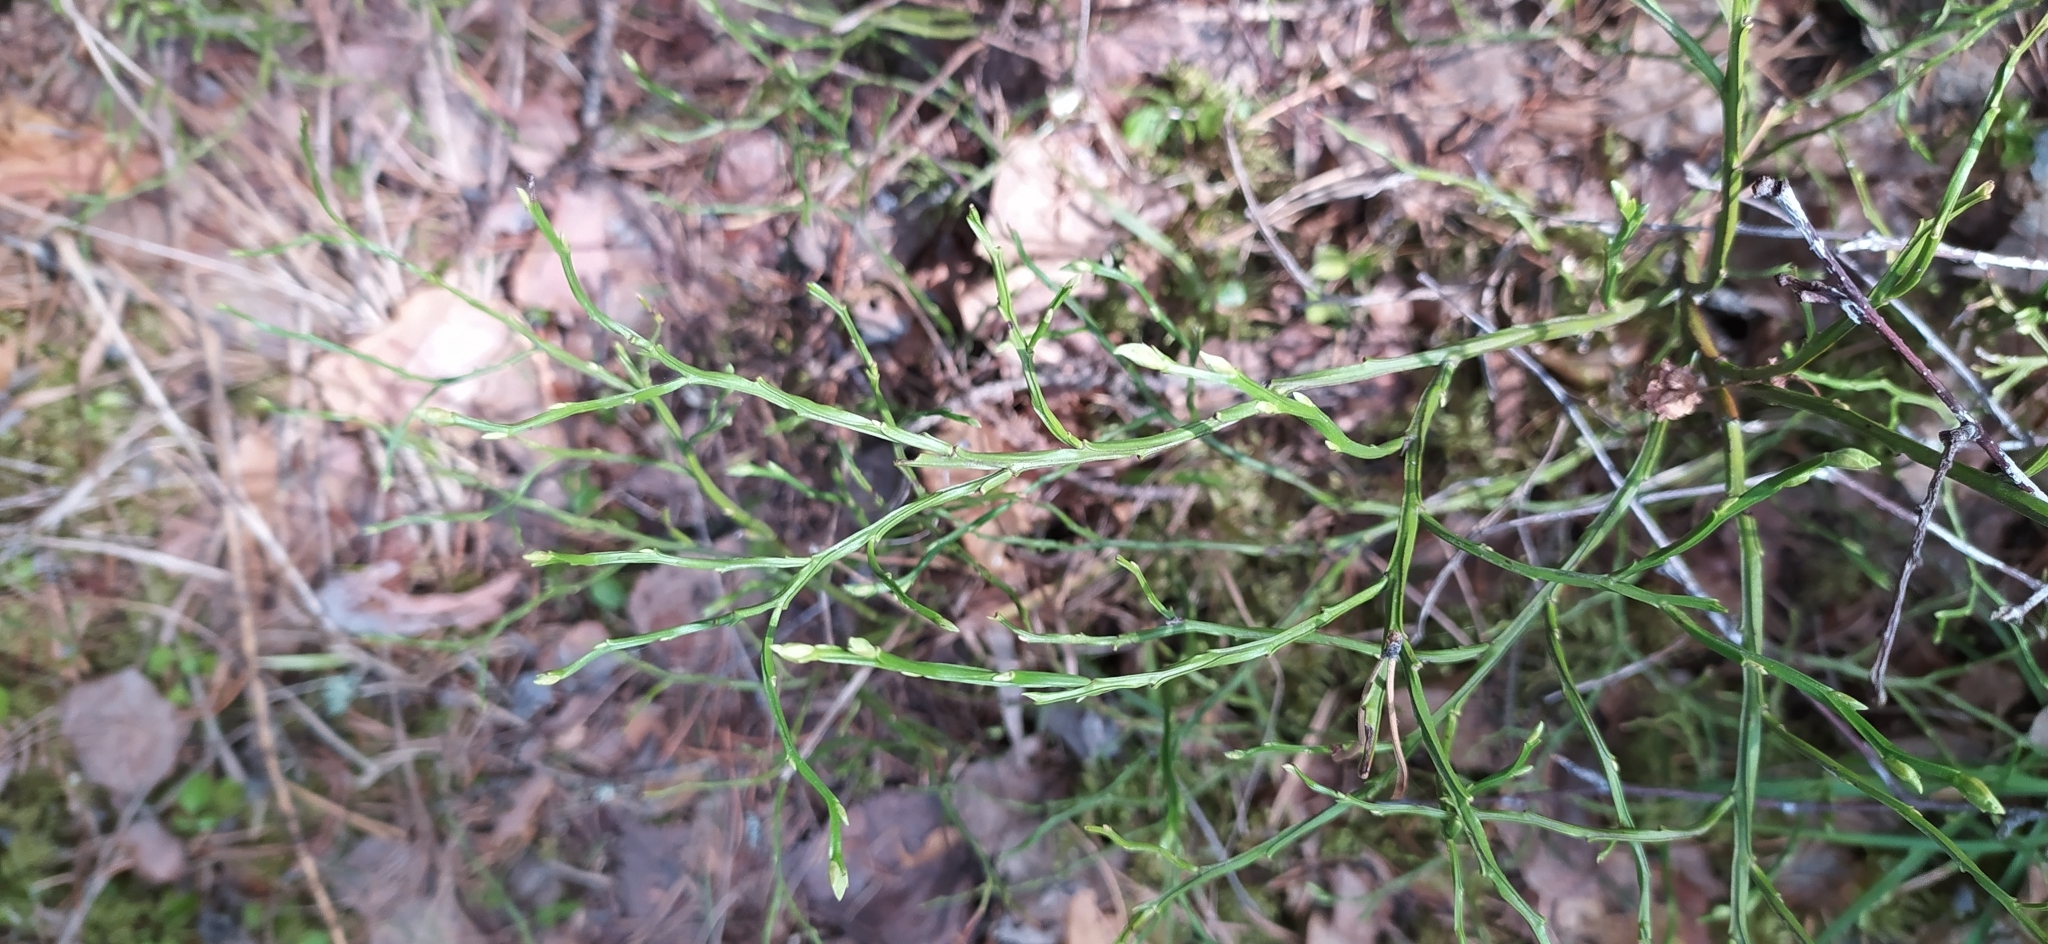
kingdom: Plantae
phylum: Tracheophyta
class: Magnoliopsida
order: Ericales
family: Ericaceae
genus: Vaccinium
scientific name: Vaccinium myrtillus
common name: Bilberry
